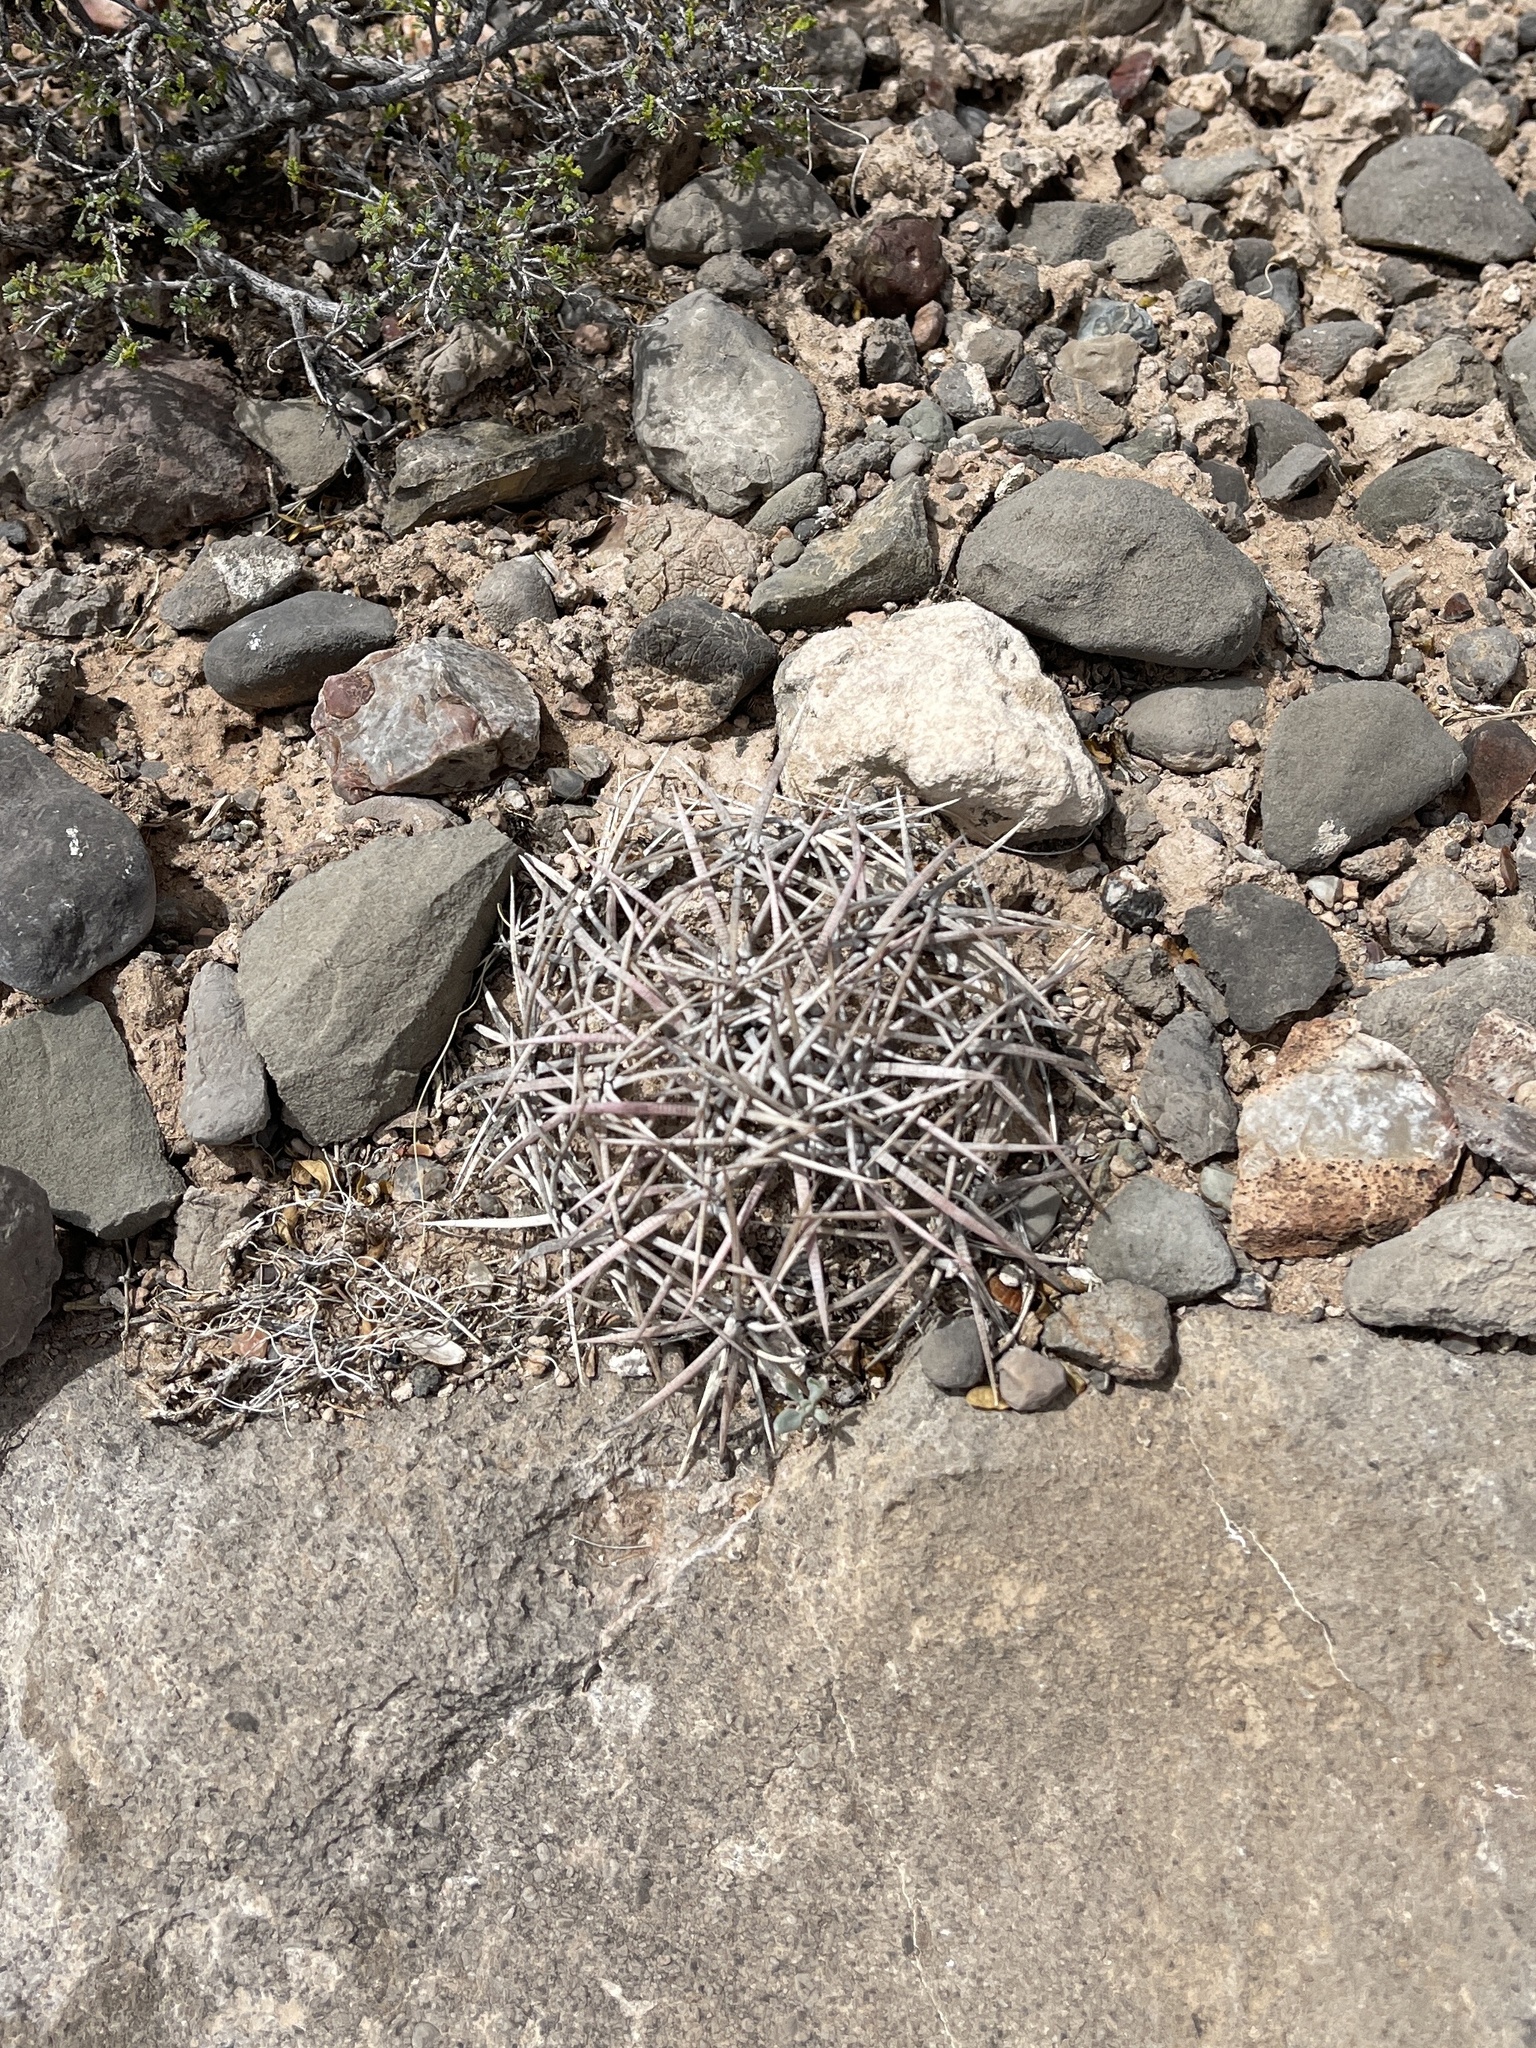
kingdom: Plantae
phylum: Tracheophyta
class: Magnoliopsida
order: Caryophyllales
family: Cactaceae
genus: Echinocactus
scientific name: Echinocactus horizonthalonius
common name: Devilshead
